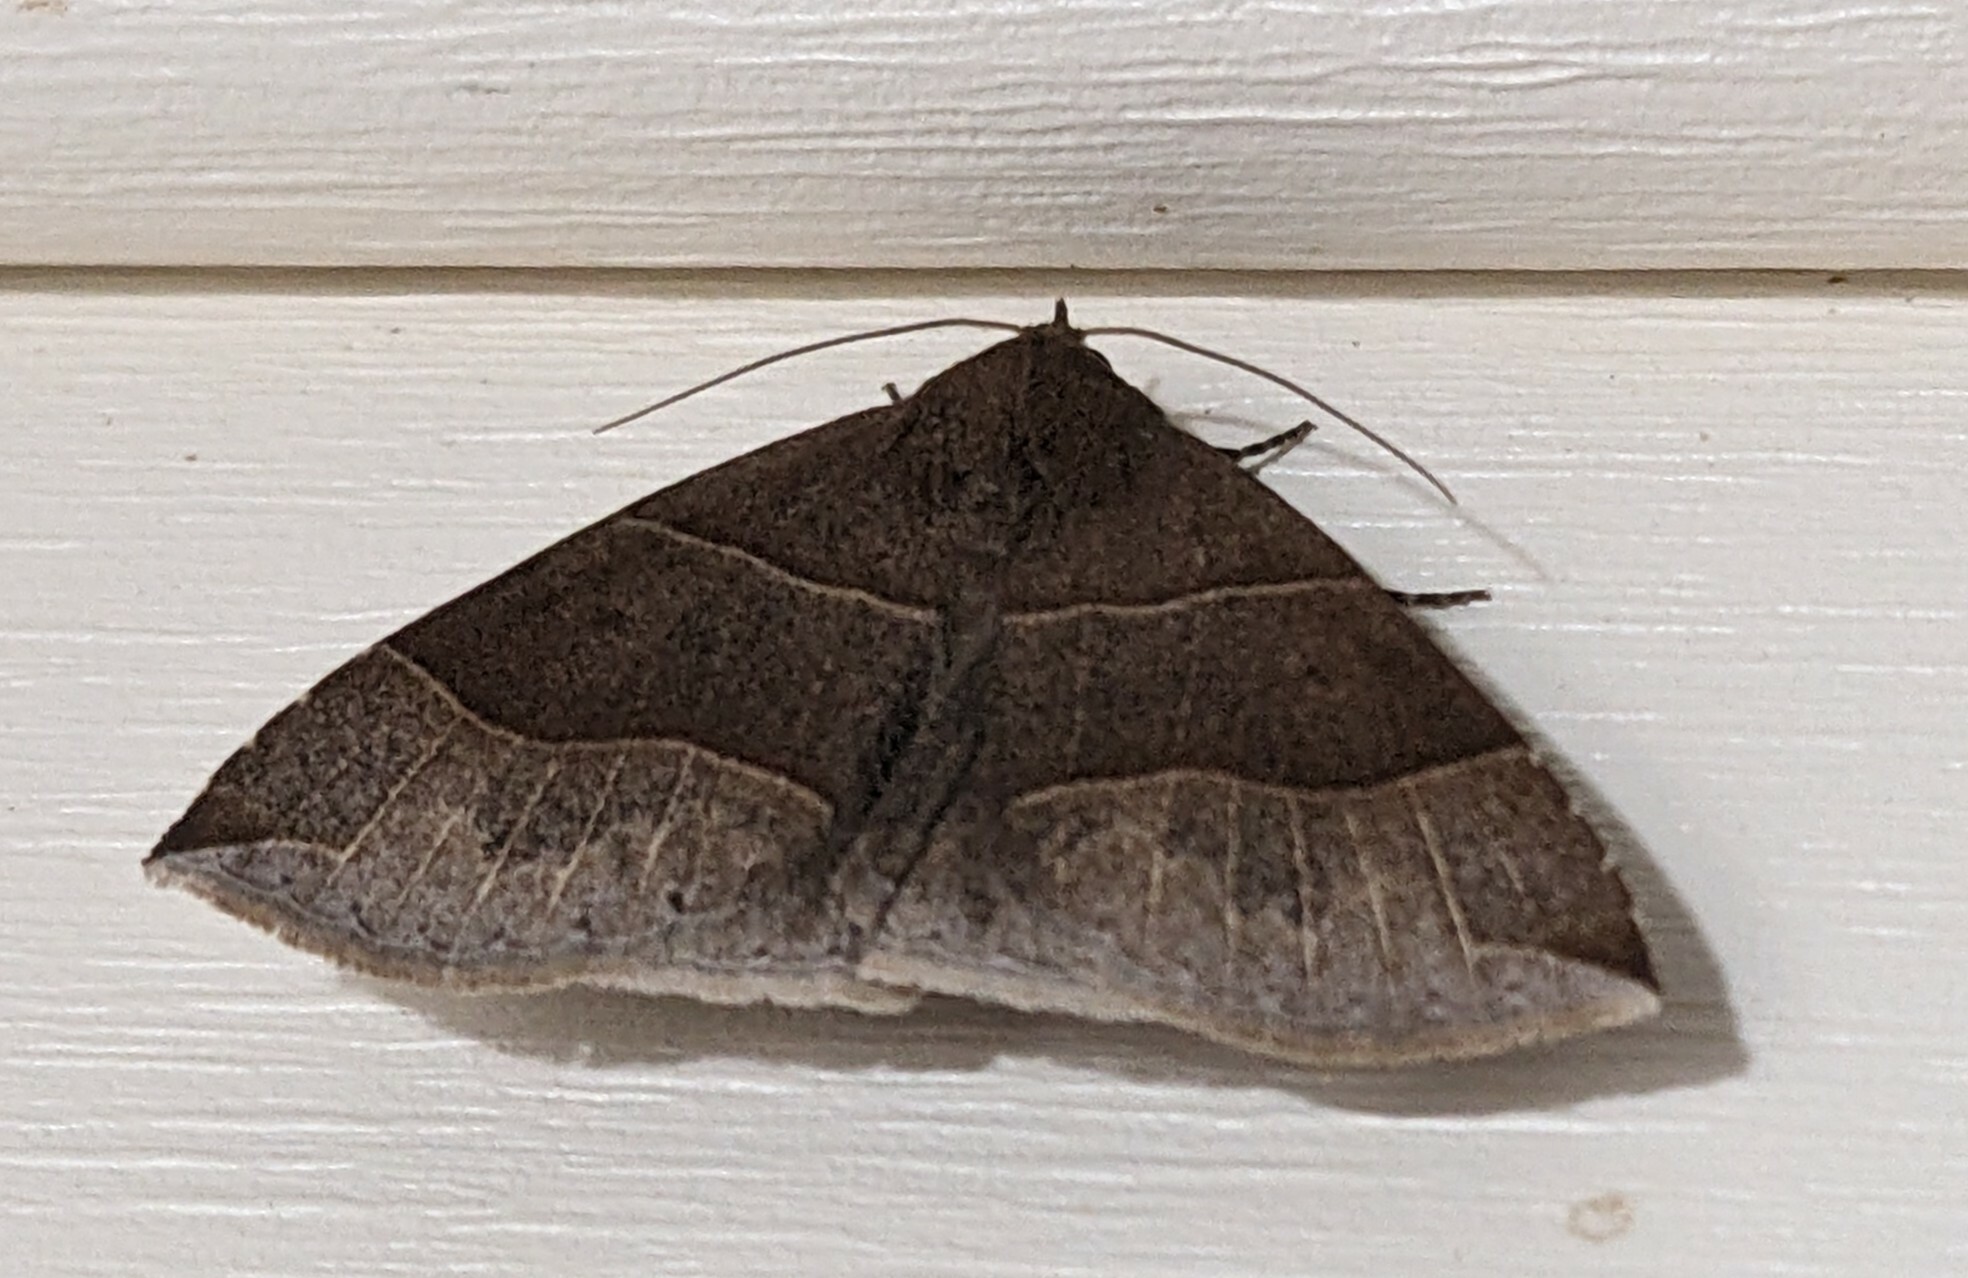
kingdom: Animalia
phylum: Arthropoda
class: Insecta
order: Lepidoptera
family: Erebidae
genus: Parallelia
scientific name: Parallelia bistriaris
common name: Maple looper moth
